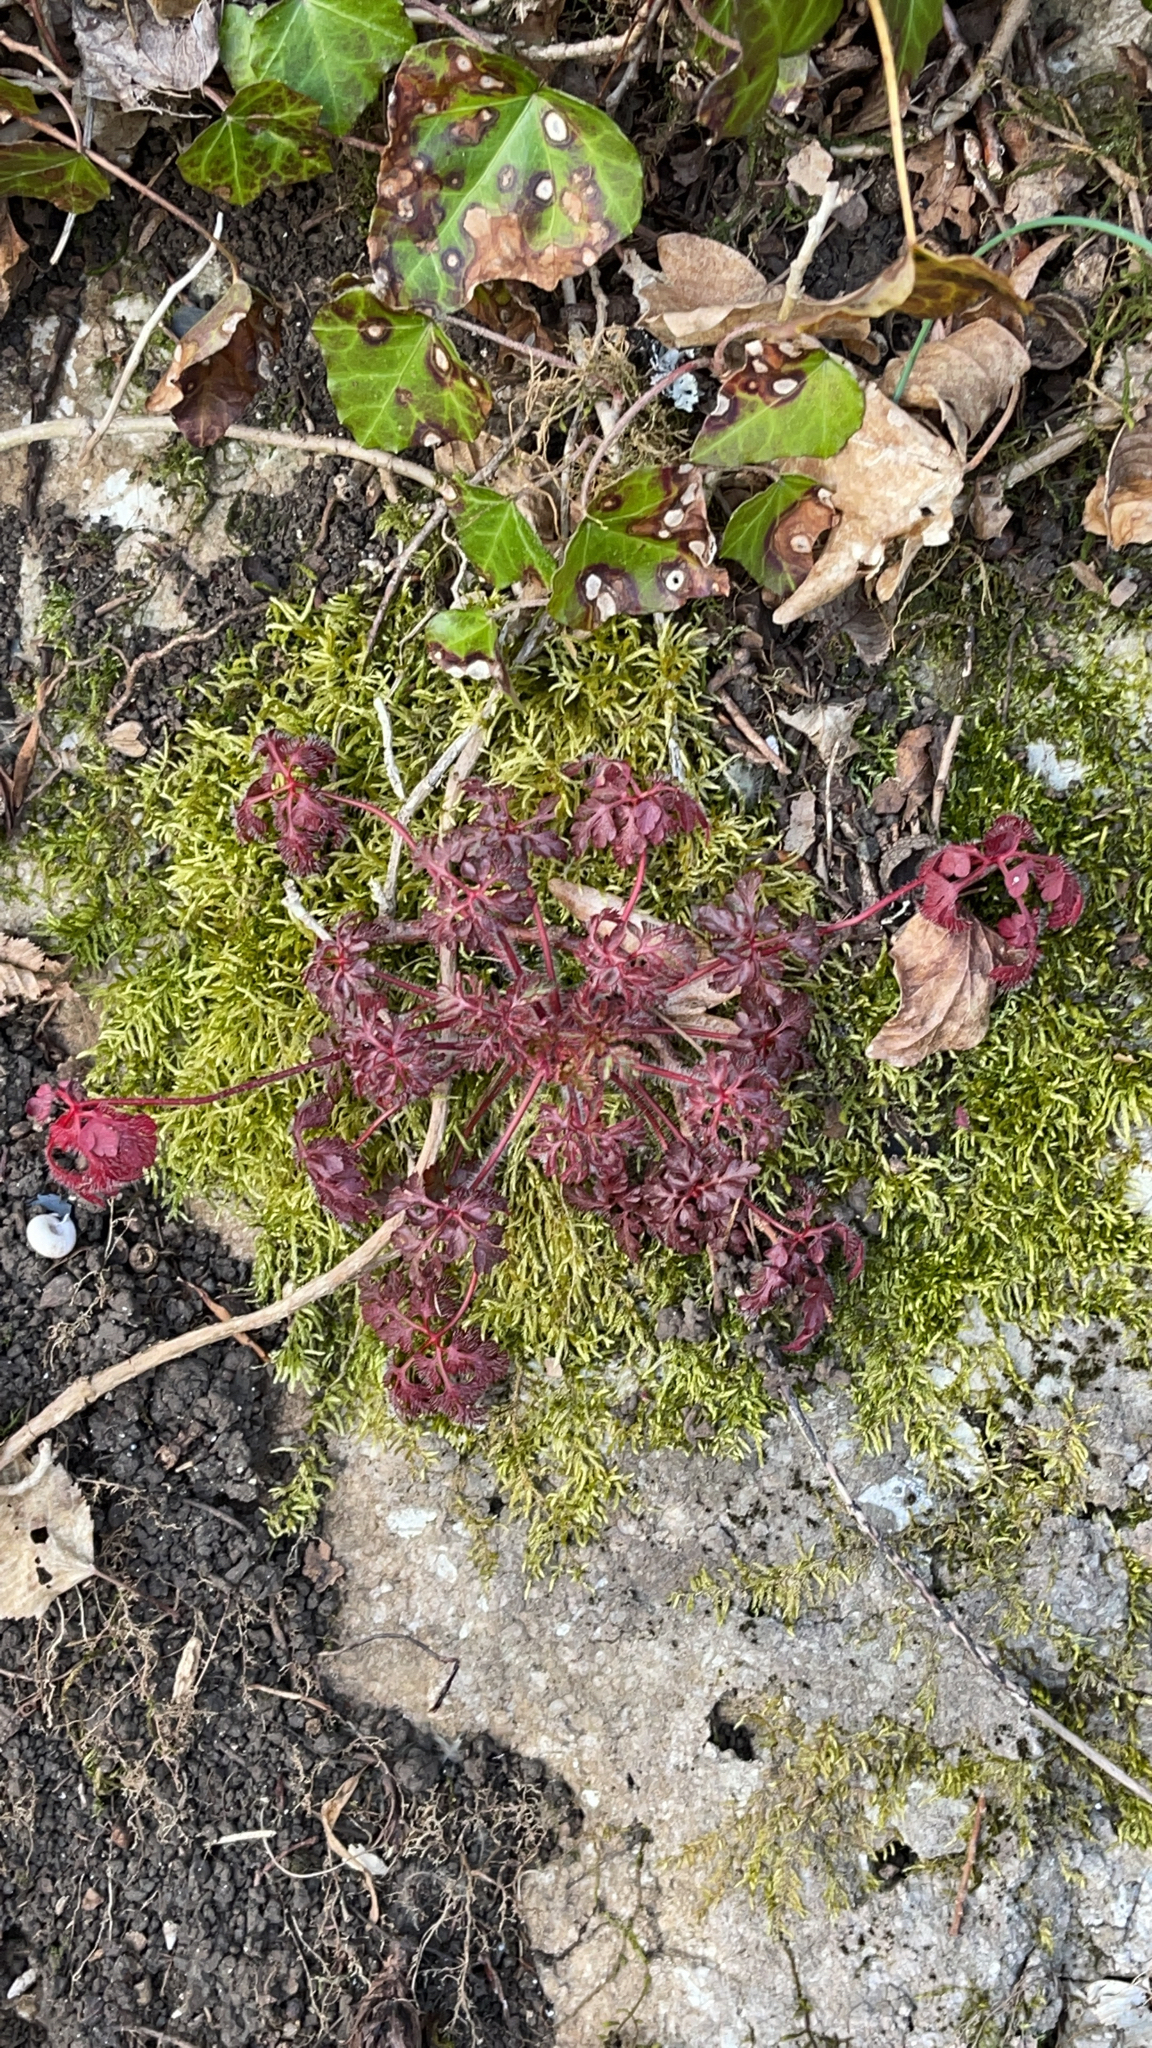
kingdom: Plantae
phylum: Tracheophyta
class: Magnoliopsida
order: Geraniales
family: Geraniaceae
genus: Geranium
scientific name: Geranium robertianum
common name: Herb-robert
